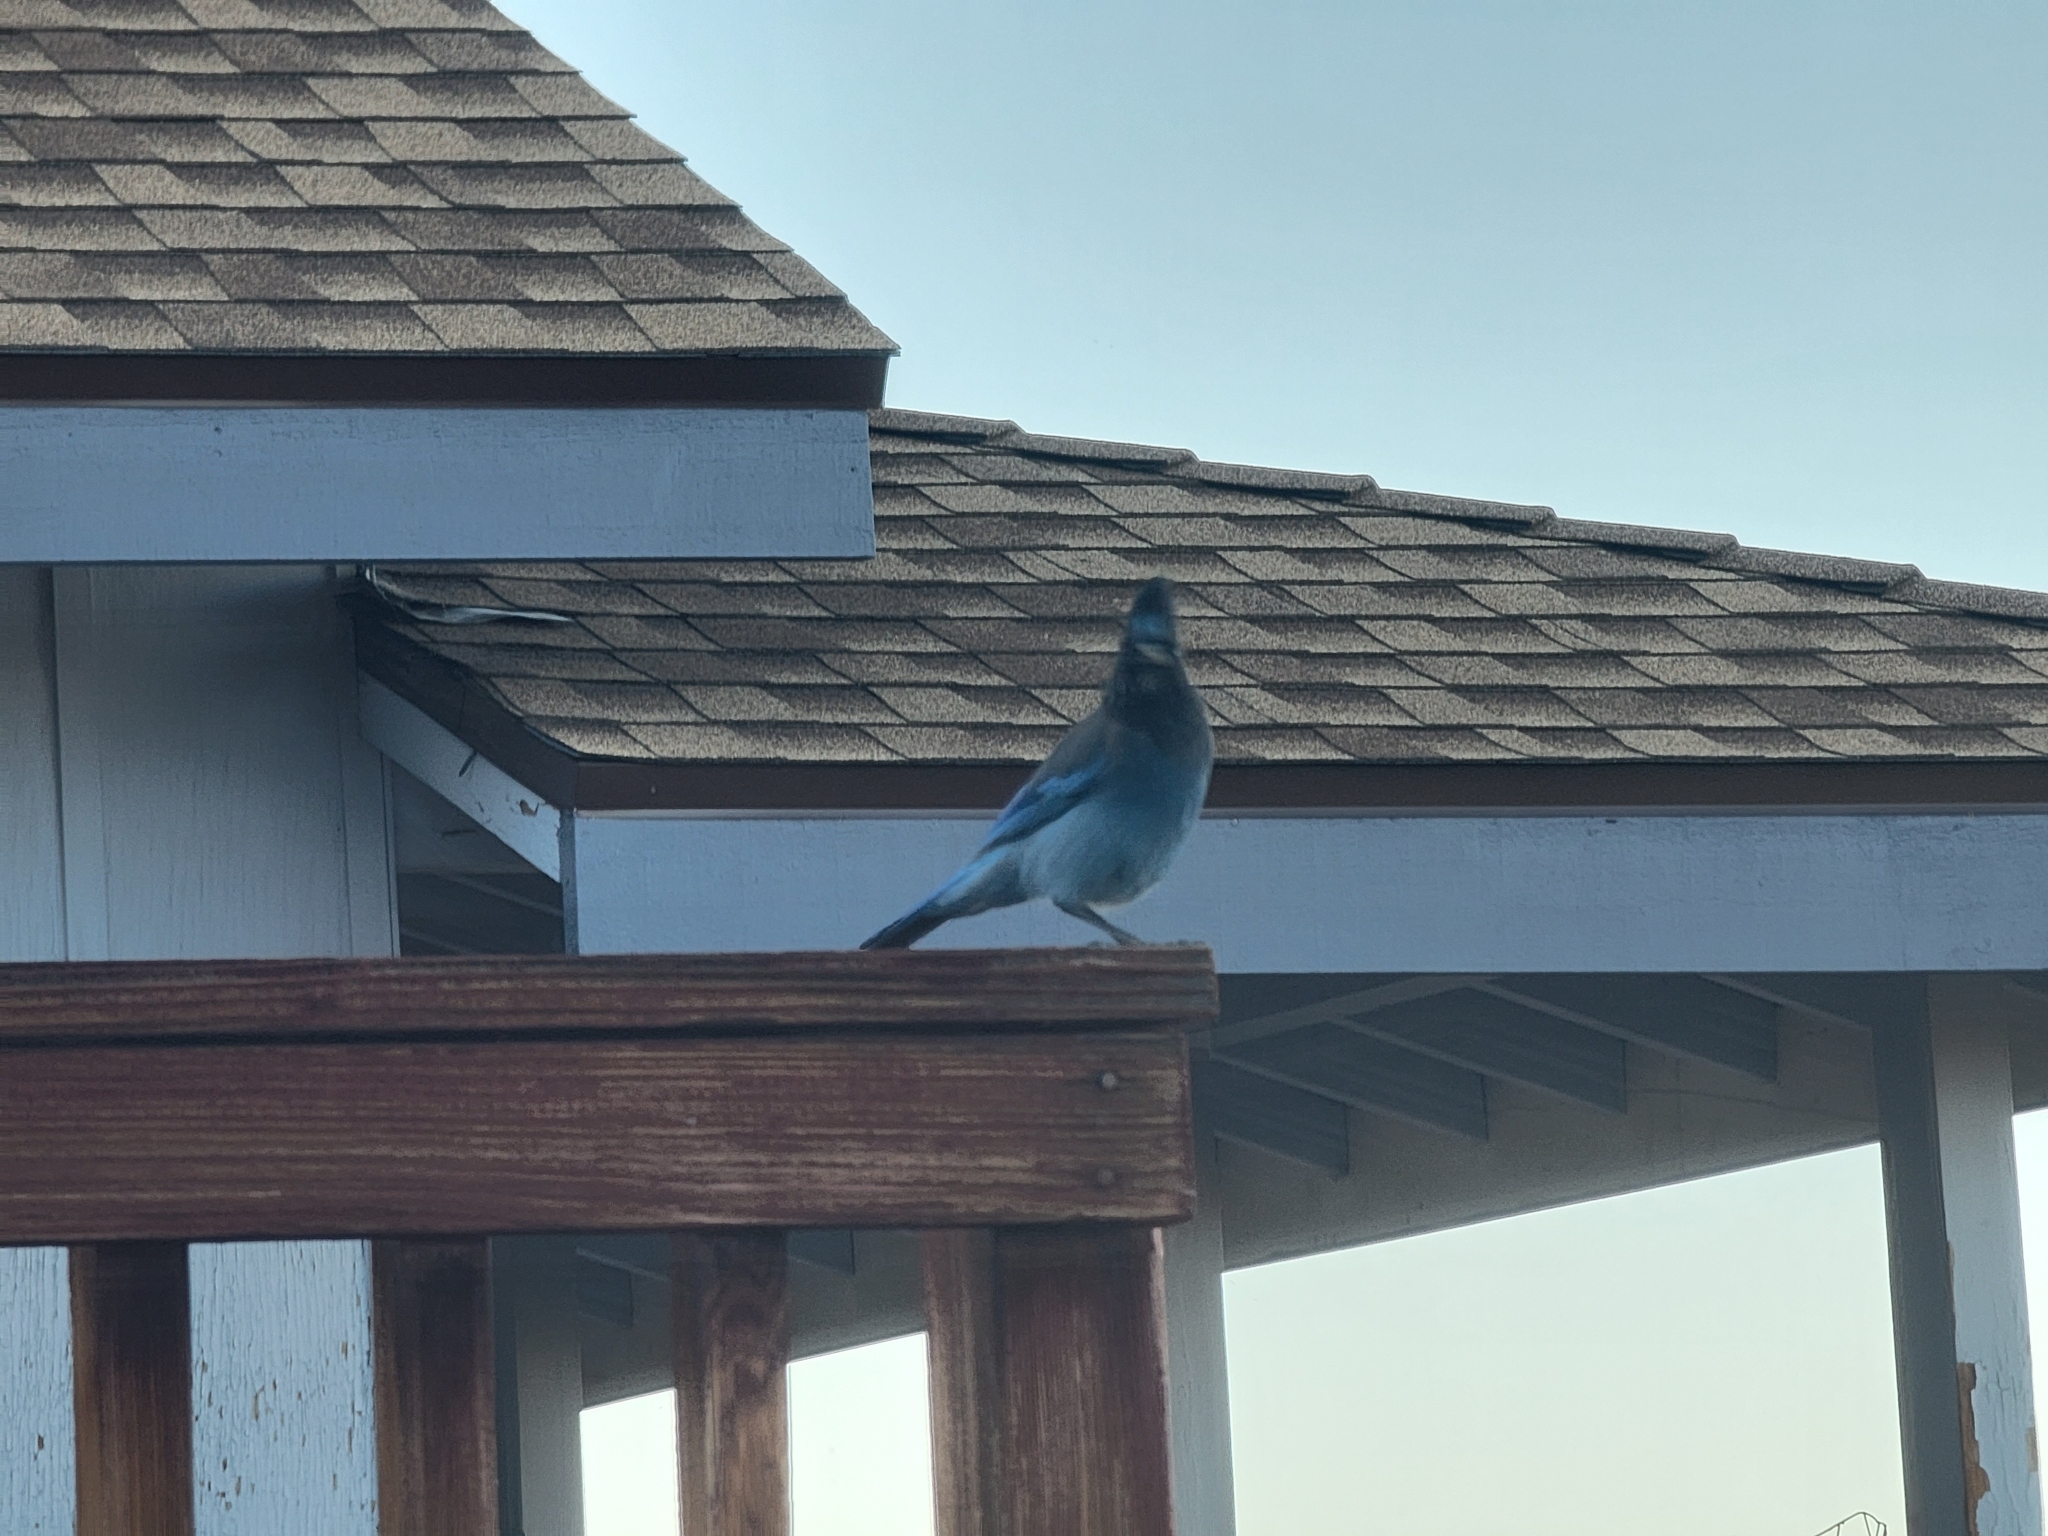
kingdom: Animalia
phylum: Chordata
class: Aves
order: Passeriformes
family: Corvidae
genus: Cyanocitta
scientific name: Cyanocitta stelleri
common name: Steller's jay
